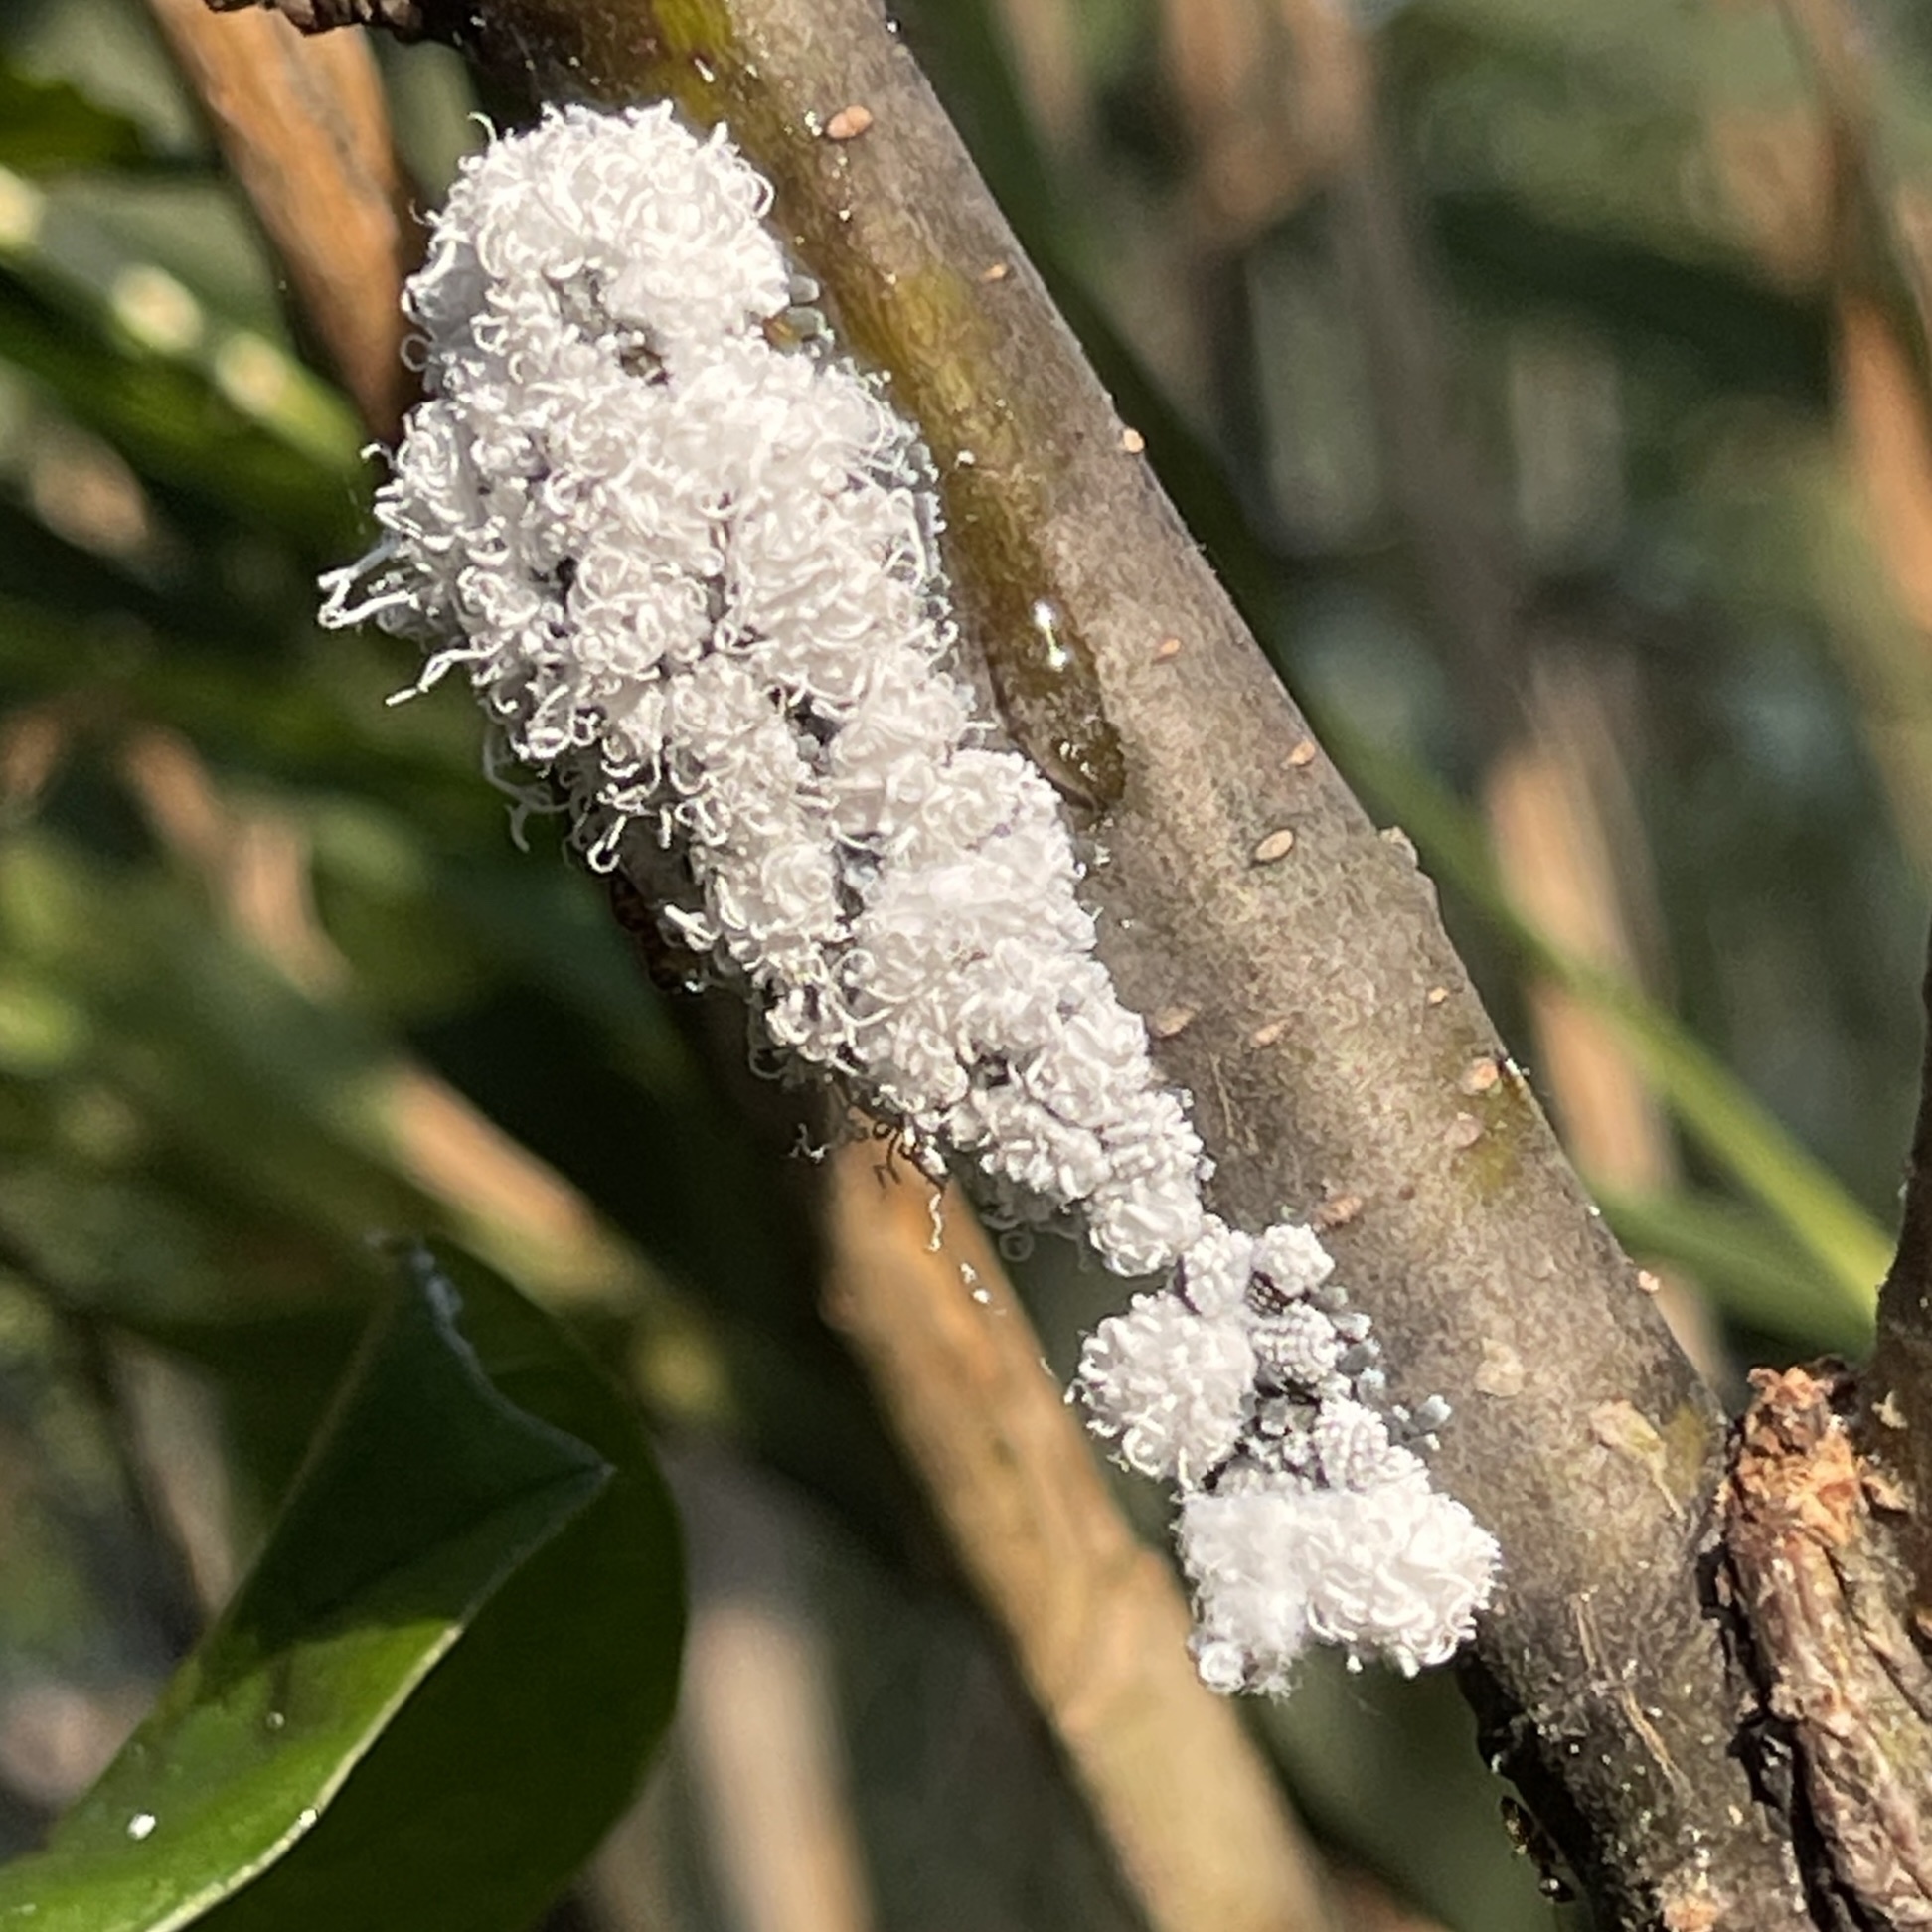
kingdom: Animalia
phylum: Arthropoda
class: Insecta
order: Hemiptera
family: Aphididae
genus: Prociphilus
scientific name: Prociphilus tessellatus
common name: Woolly alder aphid
